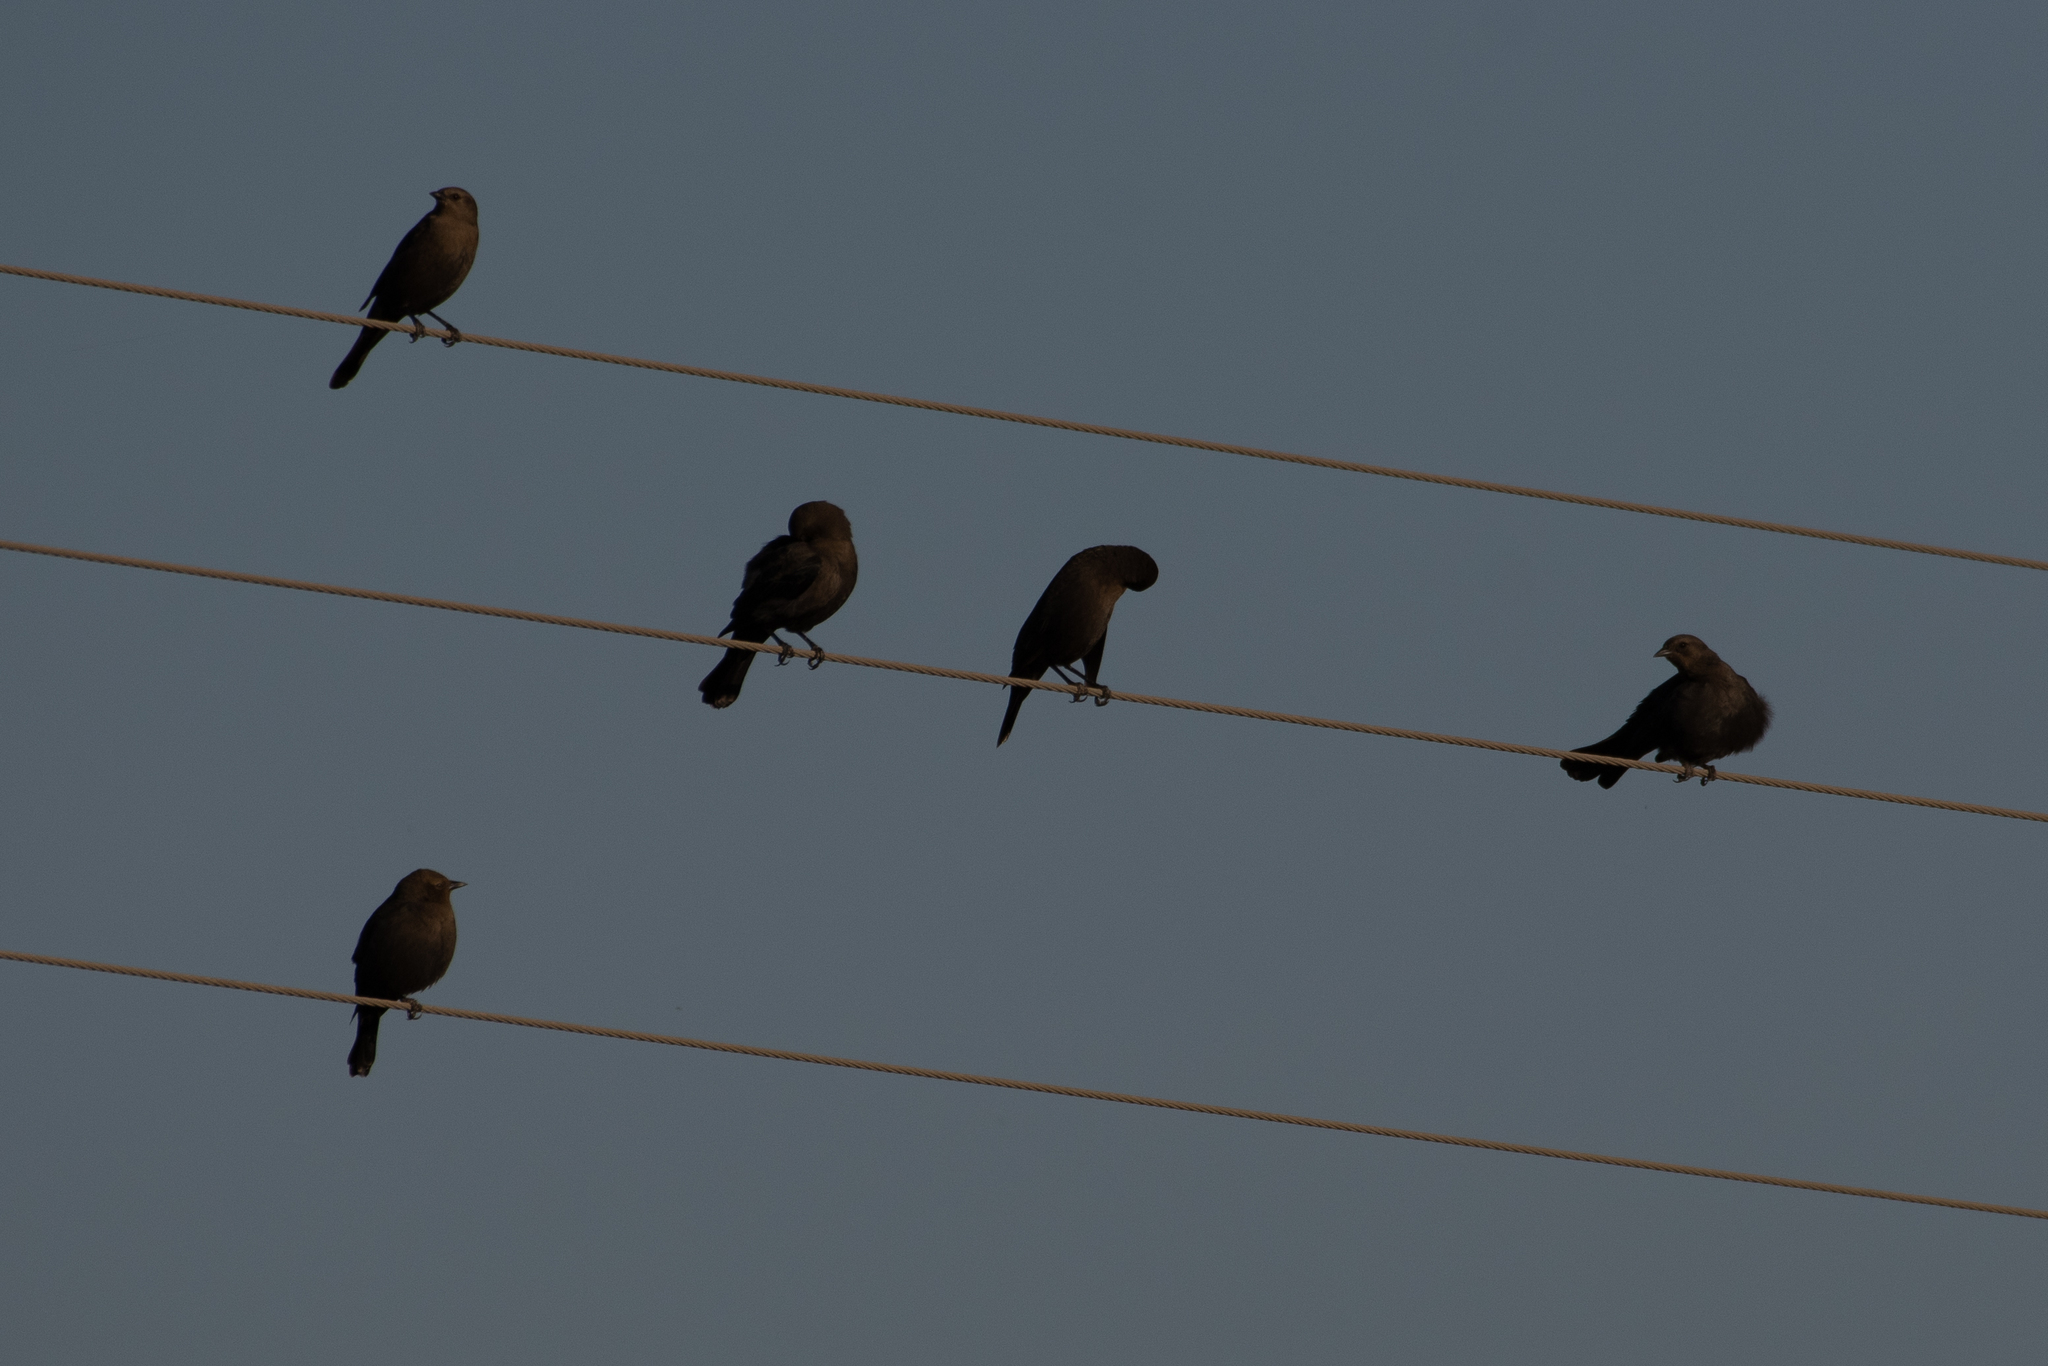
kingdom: Animalia
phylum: Chordata
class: Aves
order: Passeriformes
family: Icteridae
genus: Euphagus
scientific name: Euphagus cyanocephalus
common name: Brewer's blackbird
